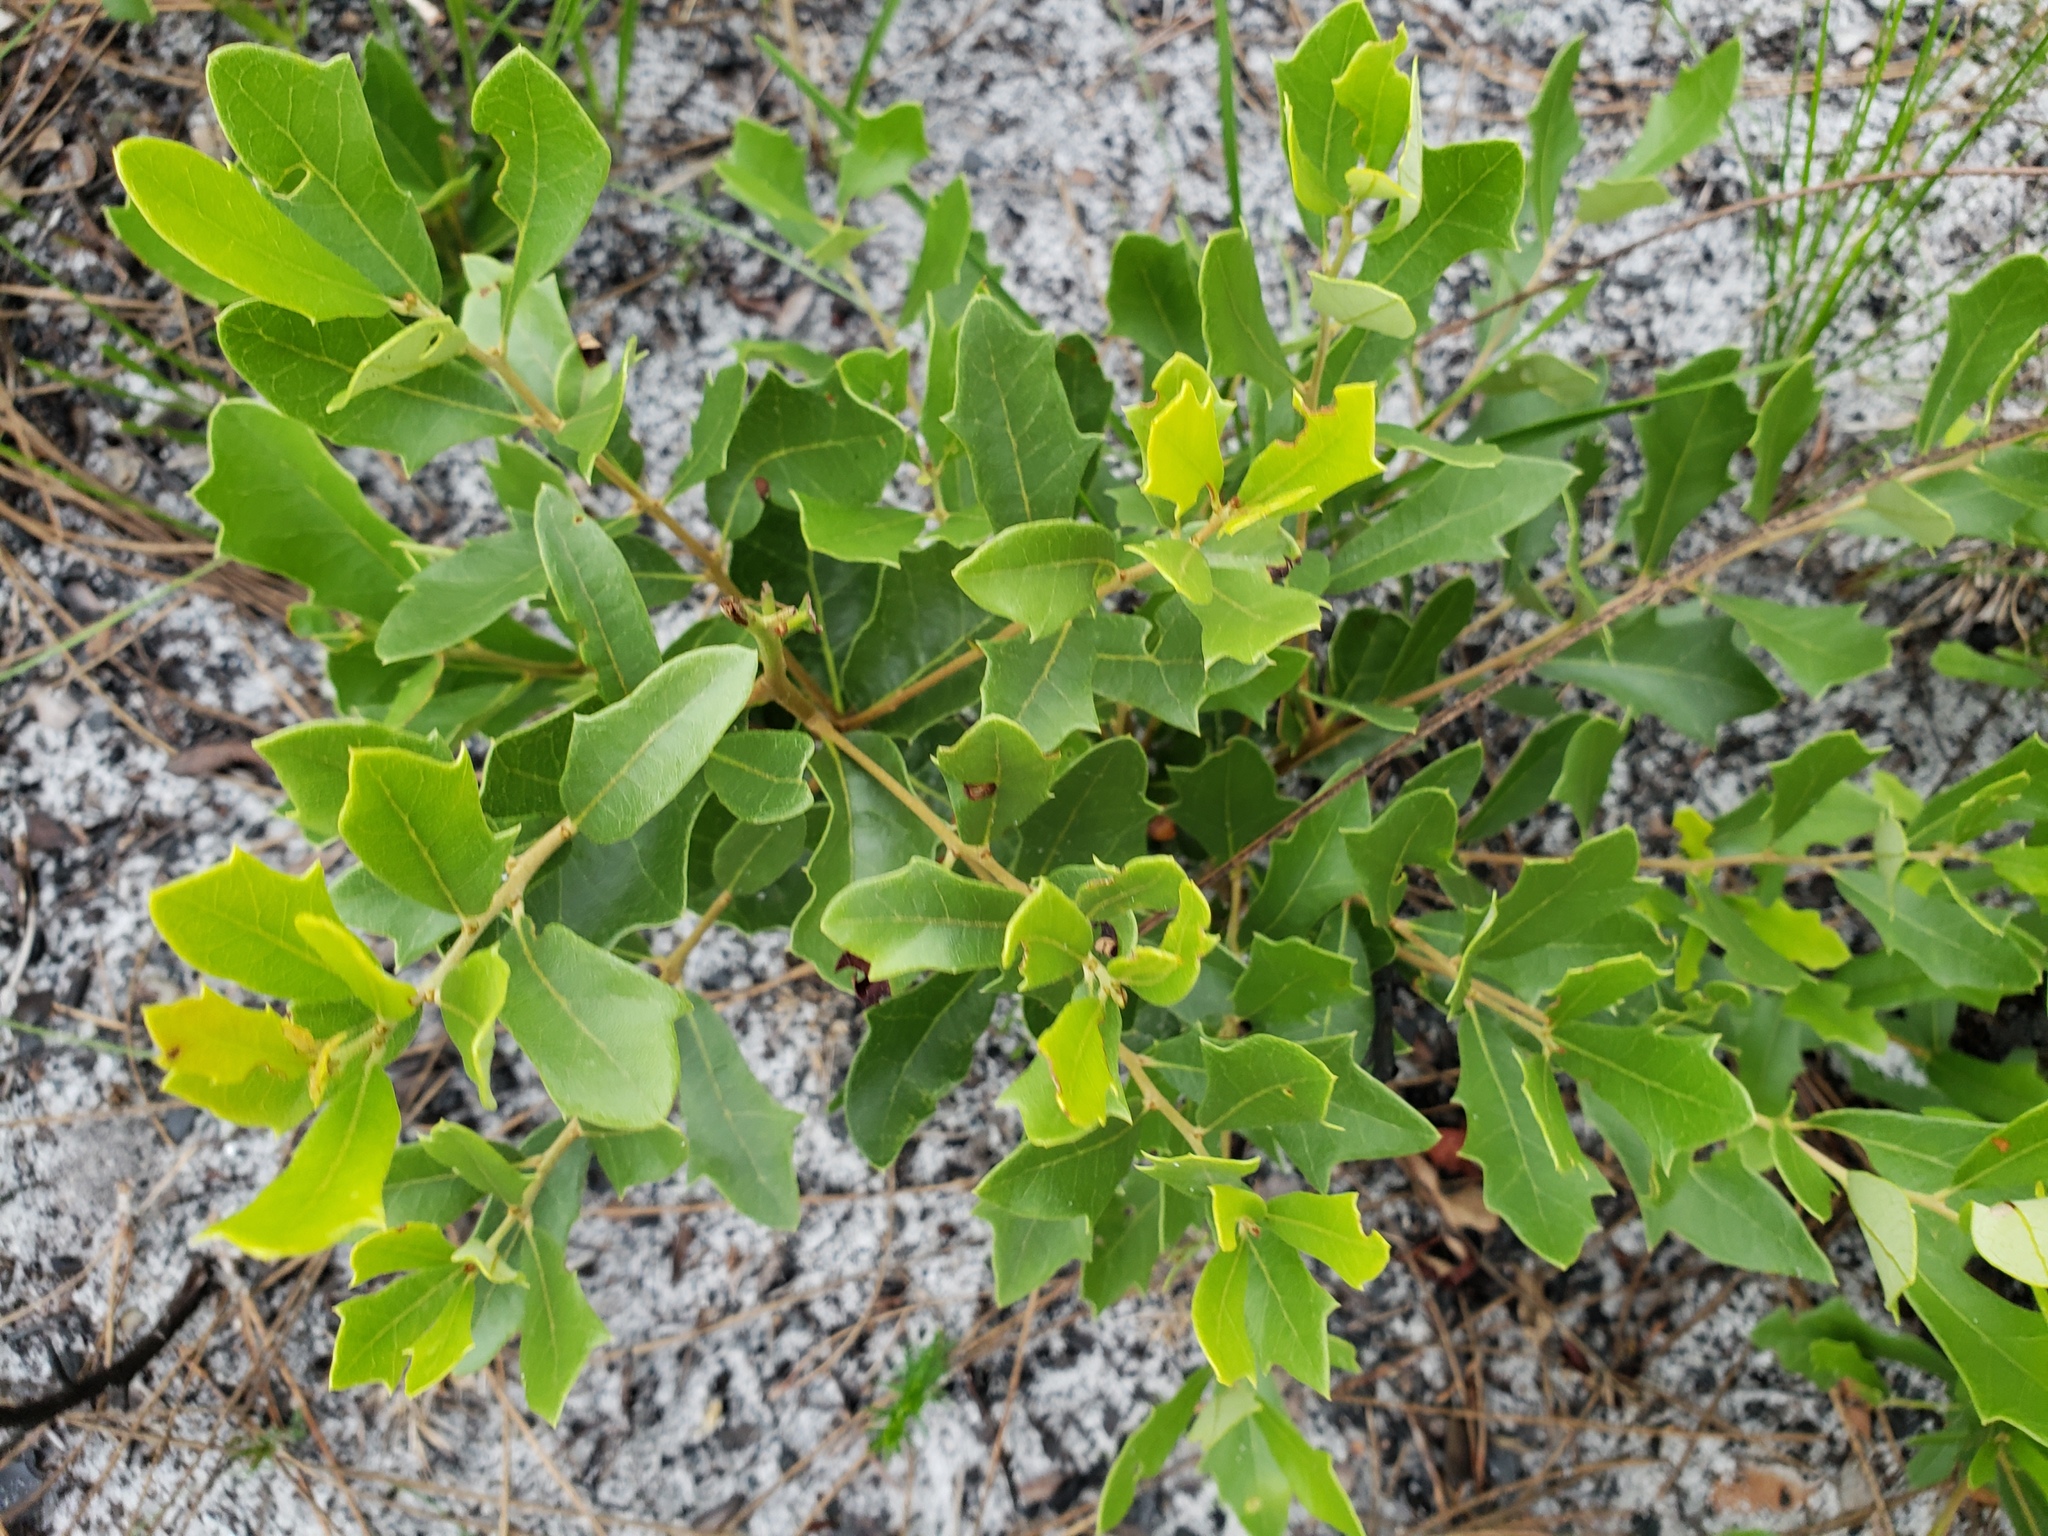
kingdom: Plantae
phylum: Tracheophyta
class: Magnoliopsida
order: Fagales
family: Fagaceae
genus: Quercus
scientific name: Quercus minima
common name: Dwarf live oak
